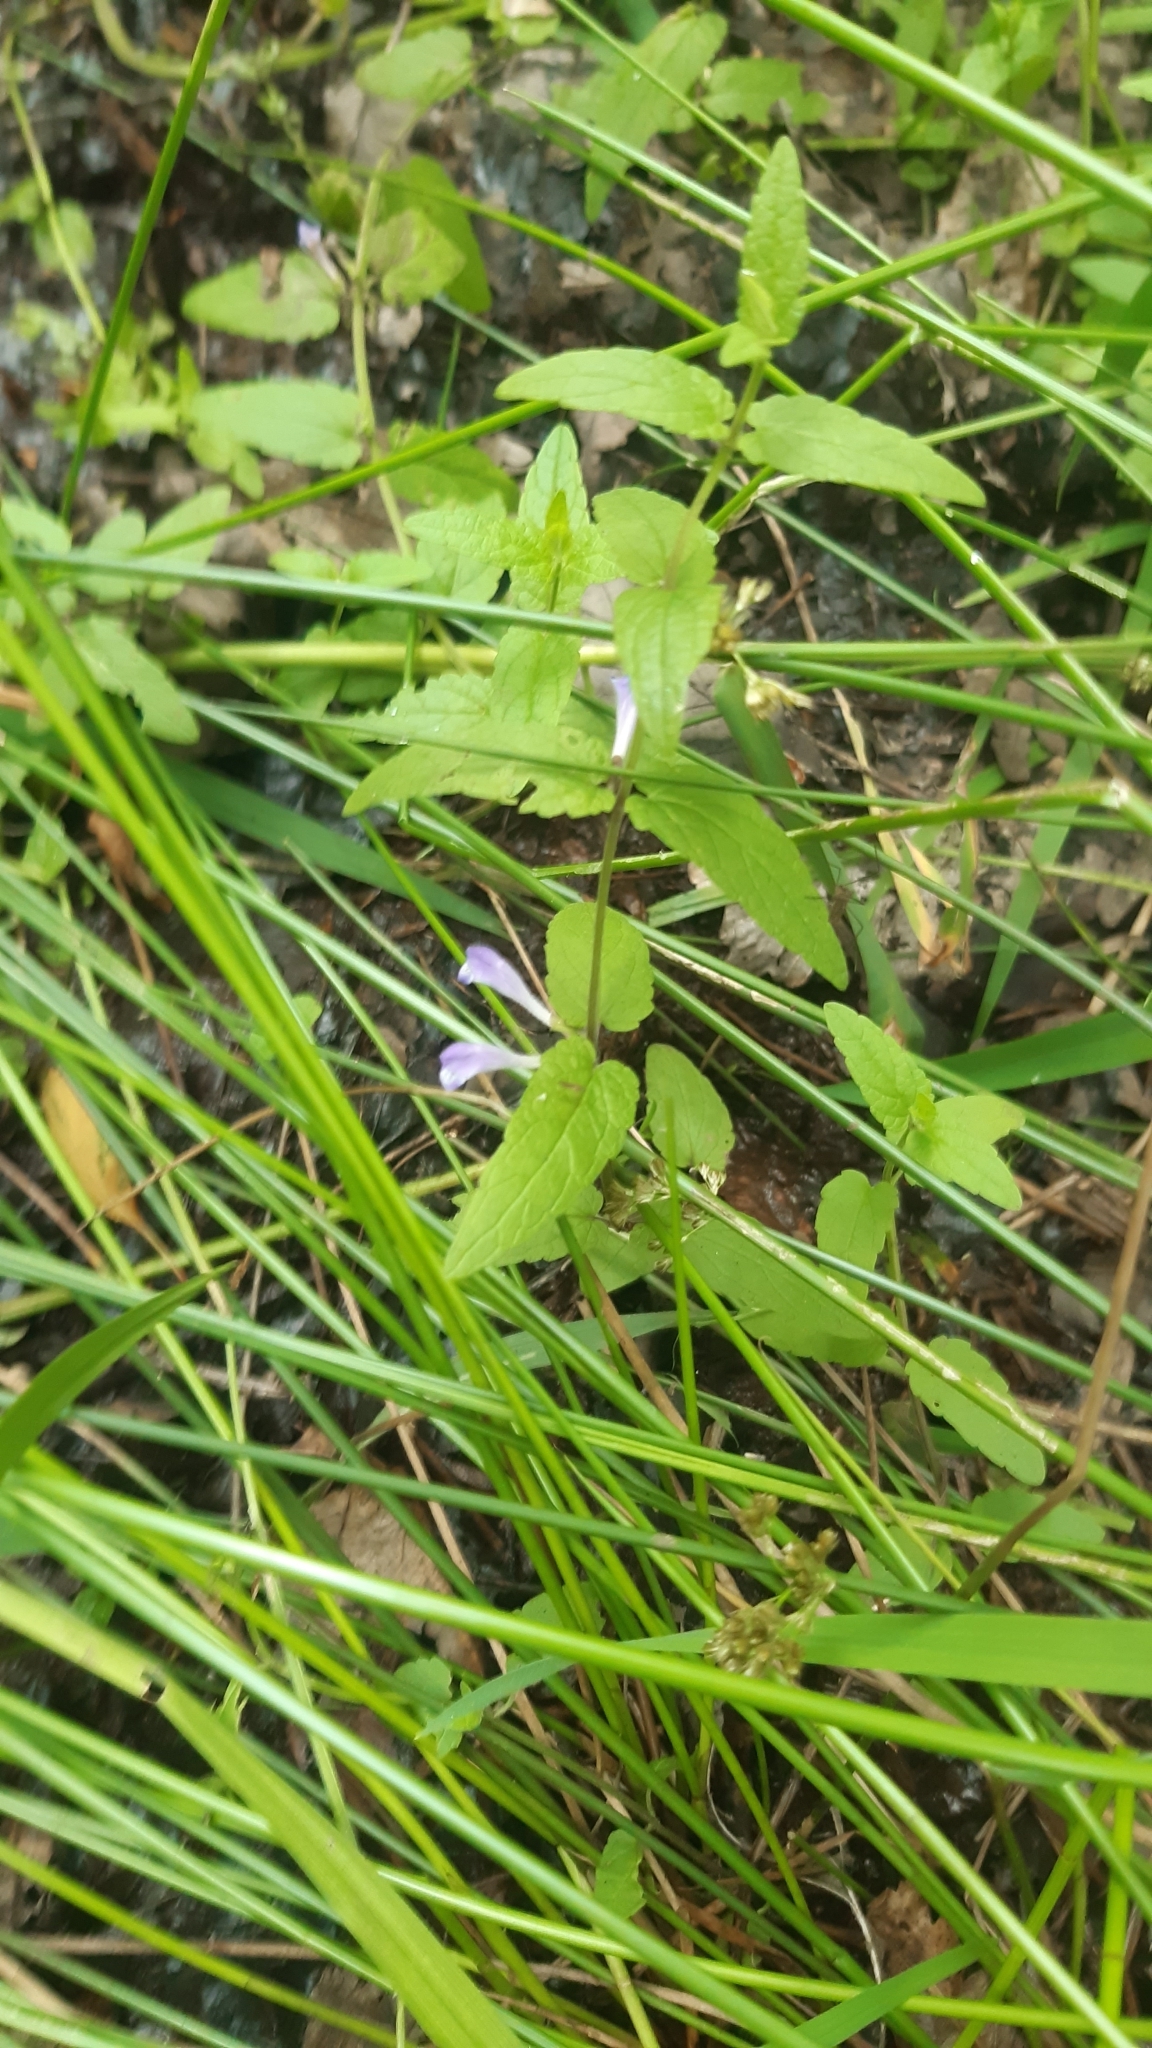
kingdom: Plantae
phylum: Tracheophyta
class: Magnoliopsida
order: Lamiales
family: Lamiaceae
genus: Scutellaria
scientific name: Scutellaria galericulata
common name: Skullcap
